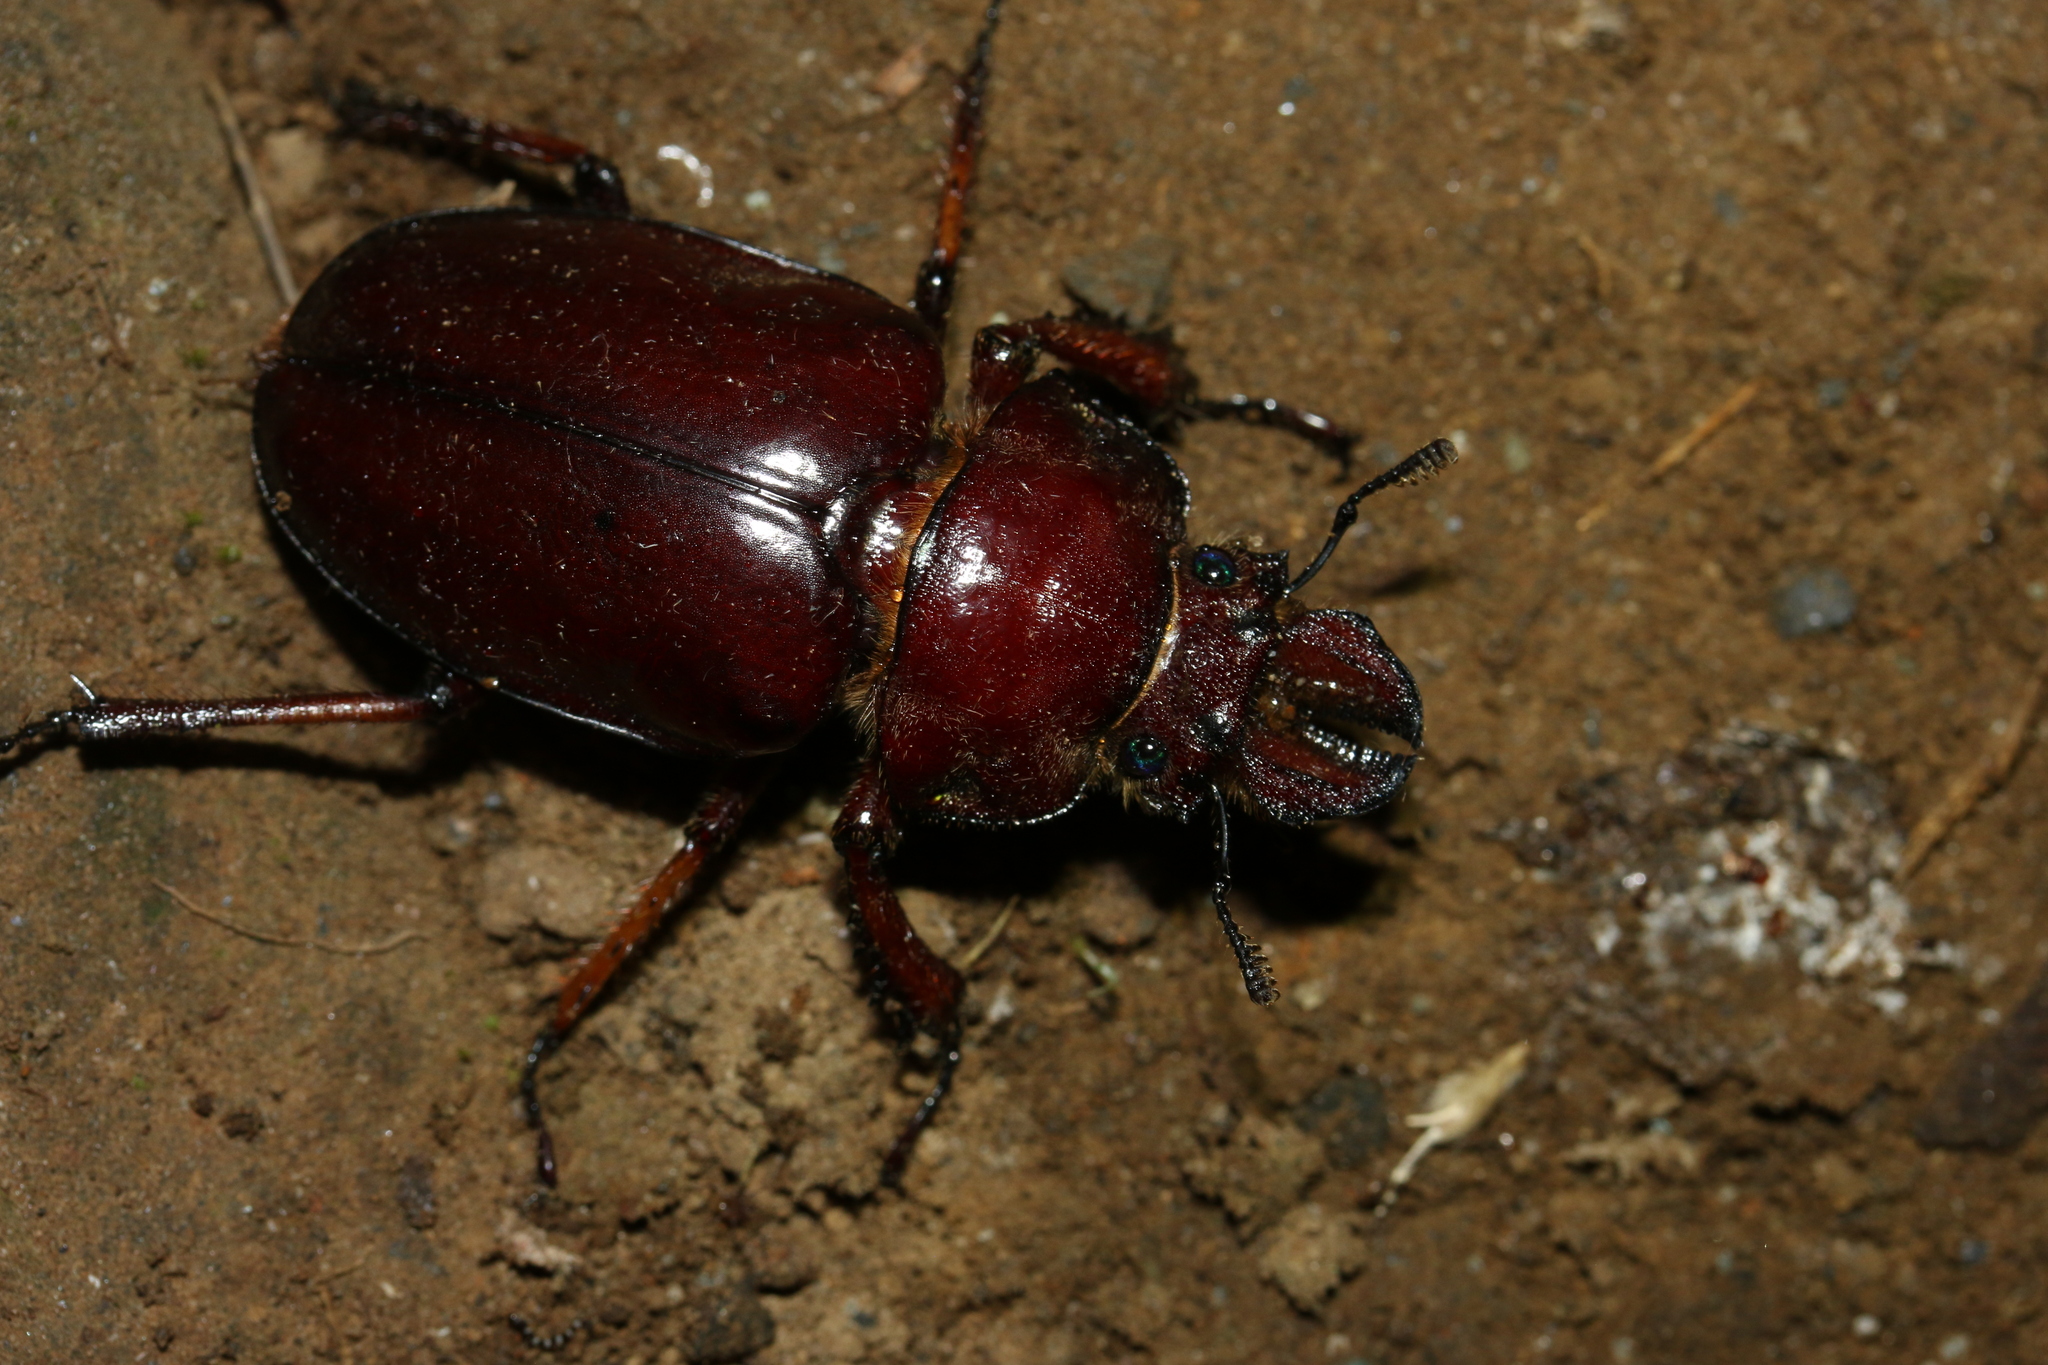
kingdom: Animalia
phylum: Arthropoda
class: Insecta
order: Coleoptera
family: Lucanidae
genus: Sphaenognathus
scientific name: Sphaenognathus alticollis
